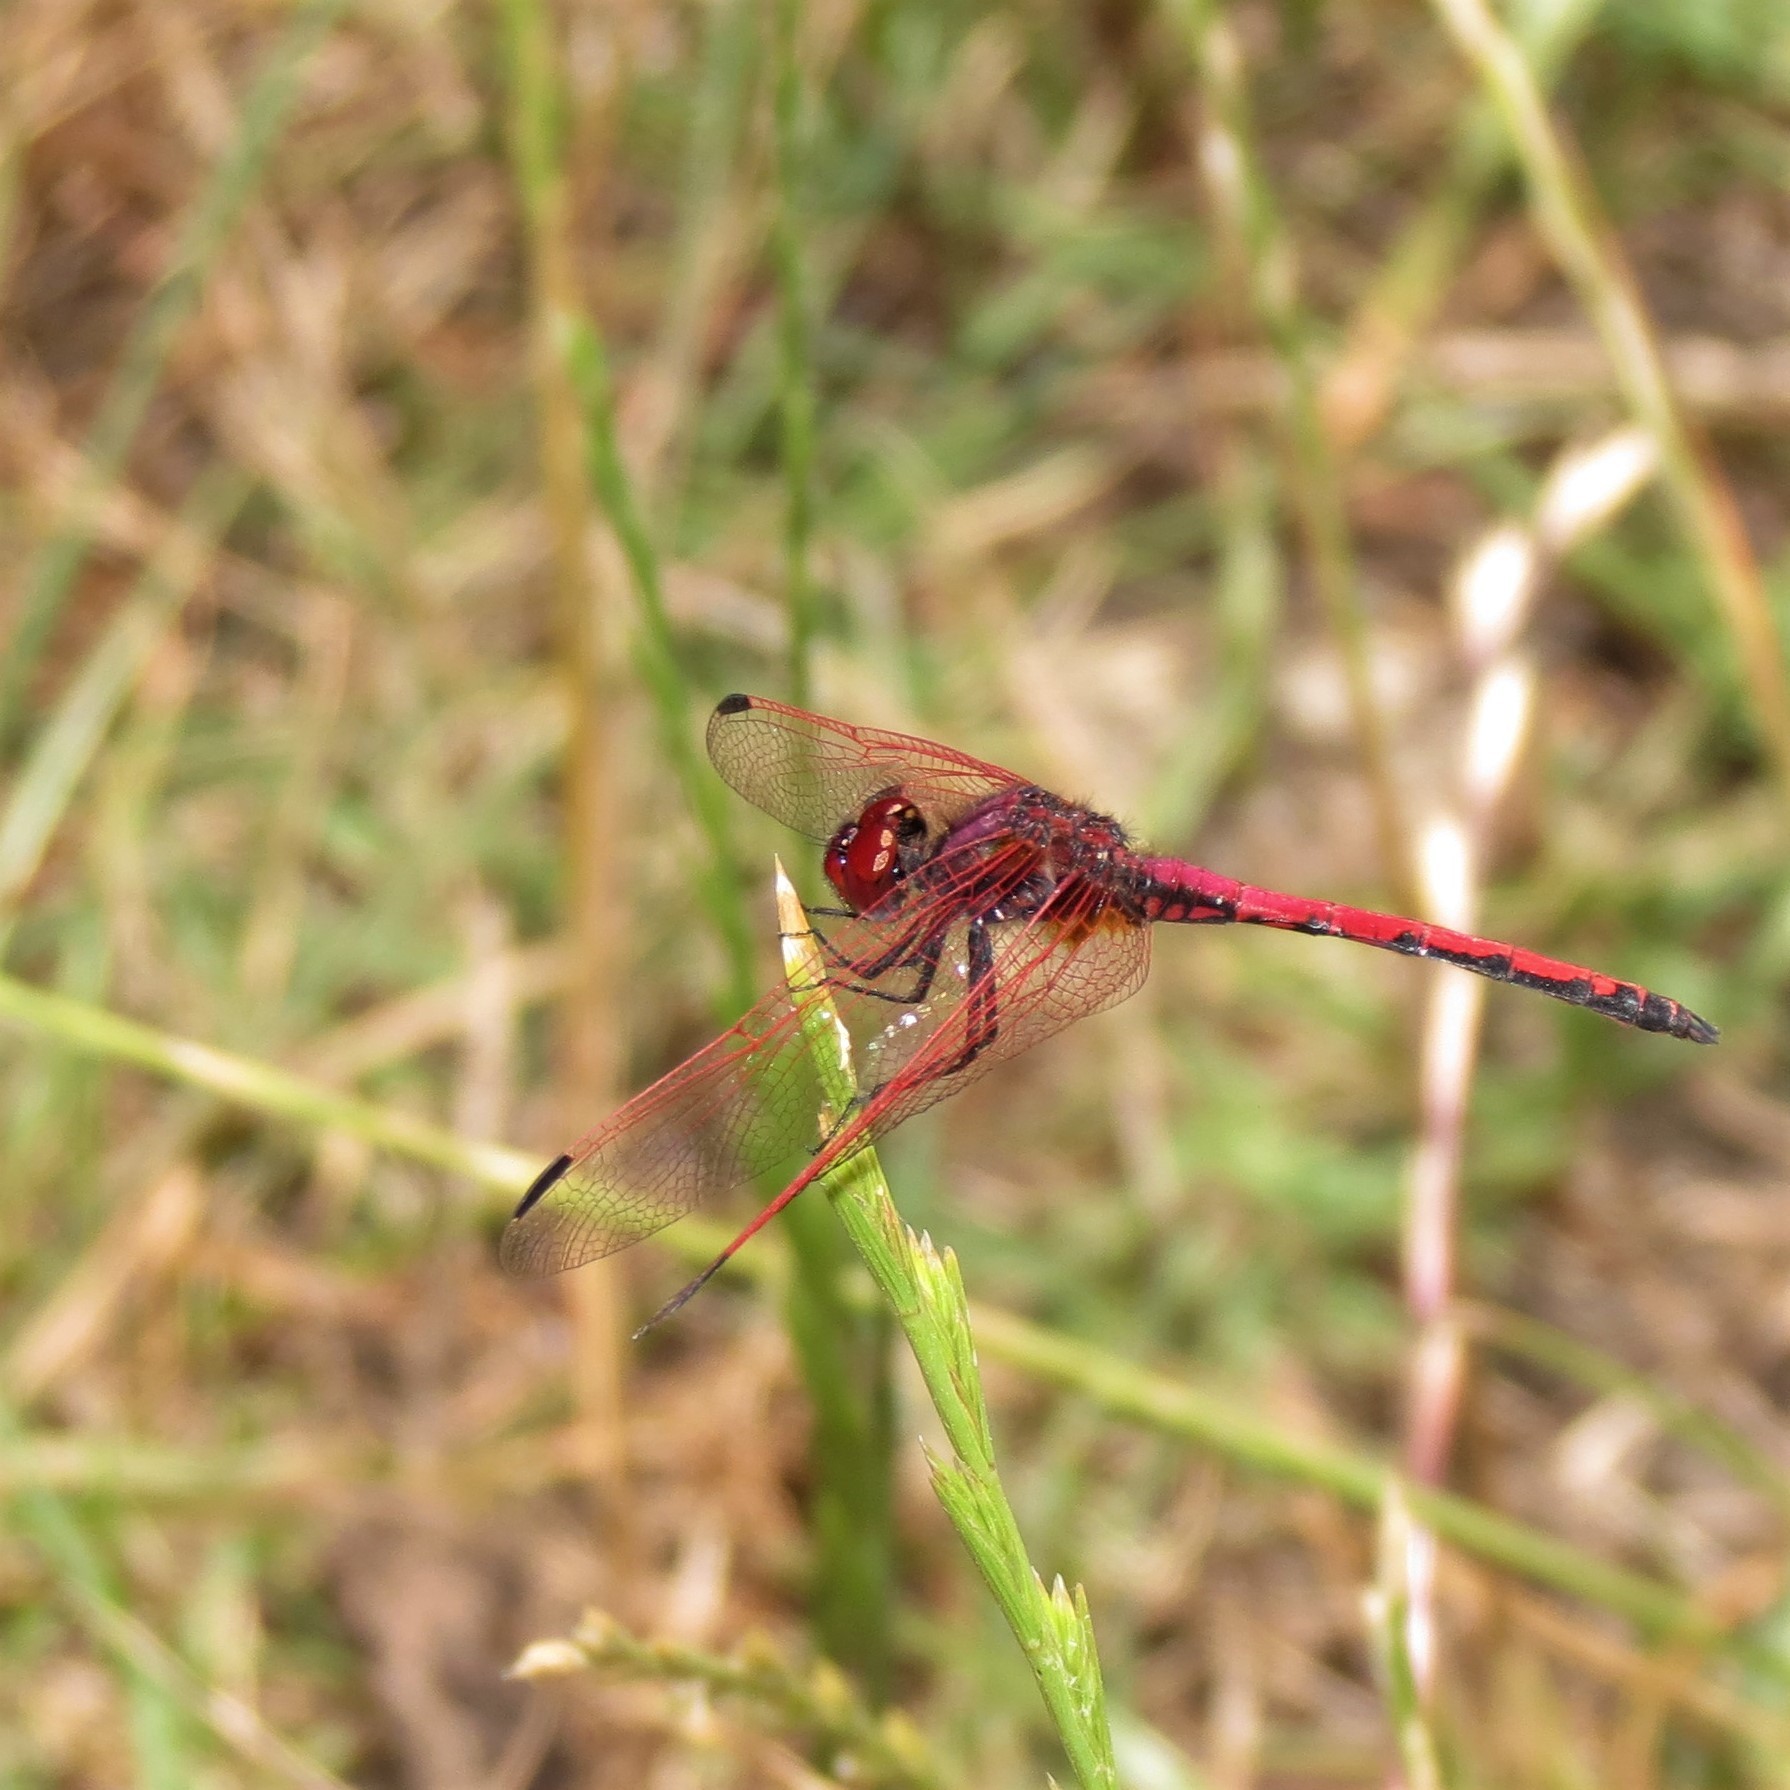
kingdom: Animalia
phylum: Arthropoda
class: Insecta
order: Odonata
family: Libellulidae
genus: Trithemis
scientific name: Trithemis arteriosa
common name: Red-veined dropwing
